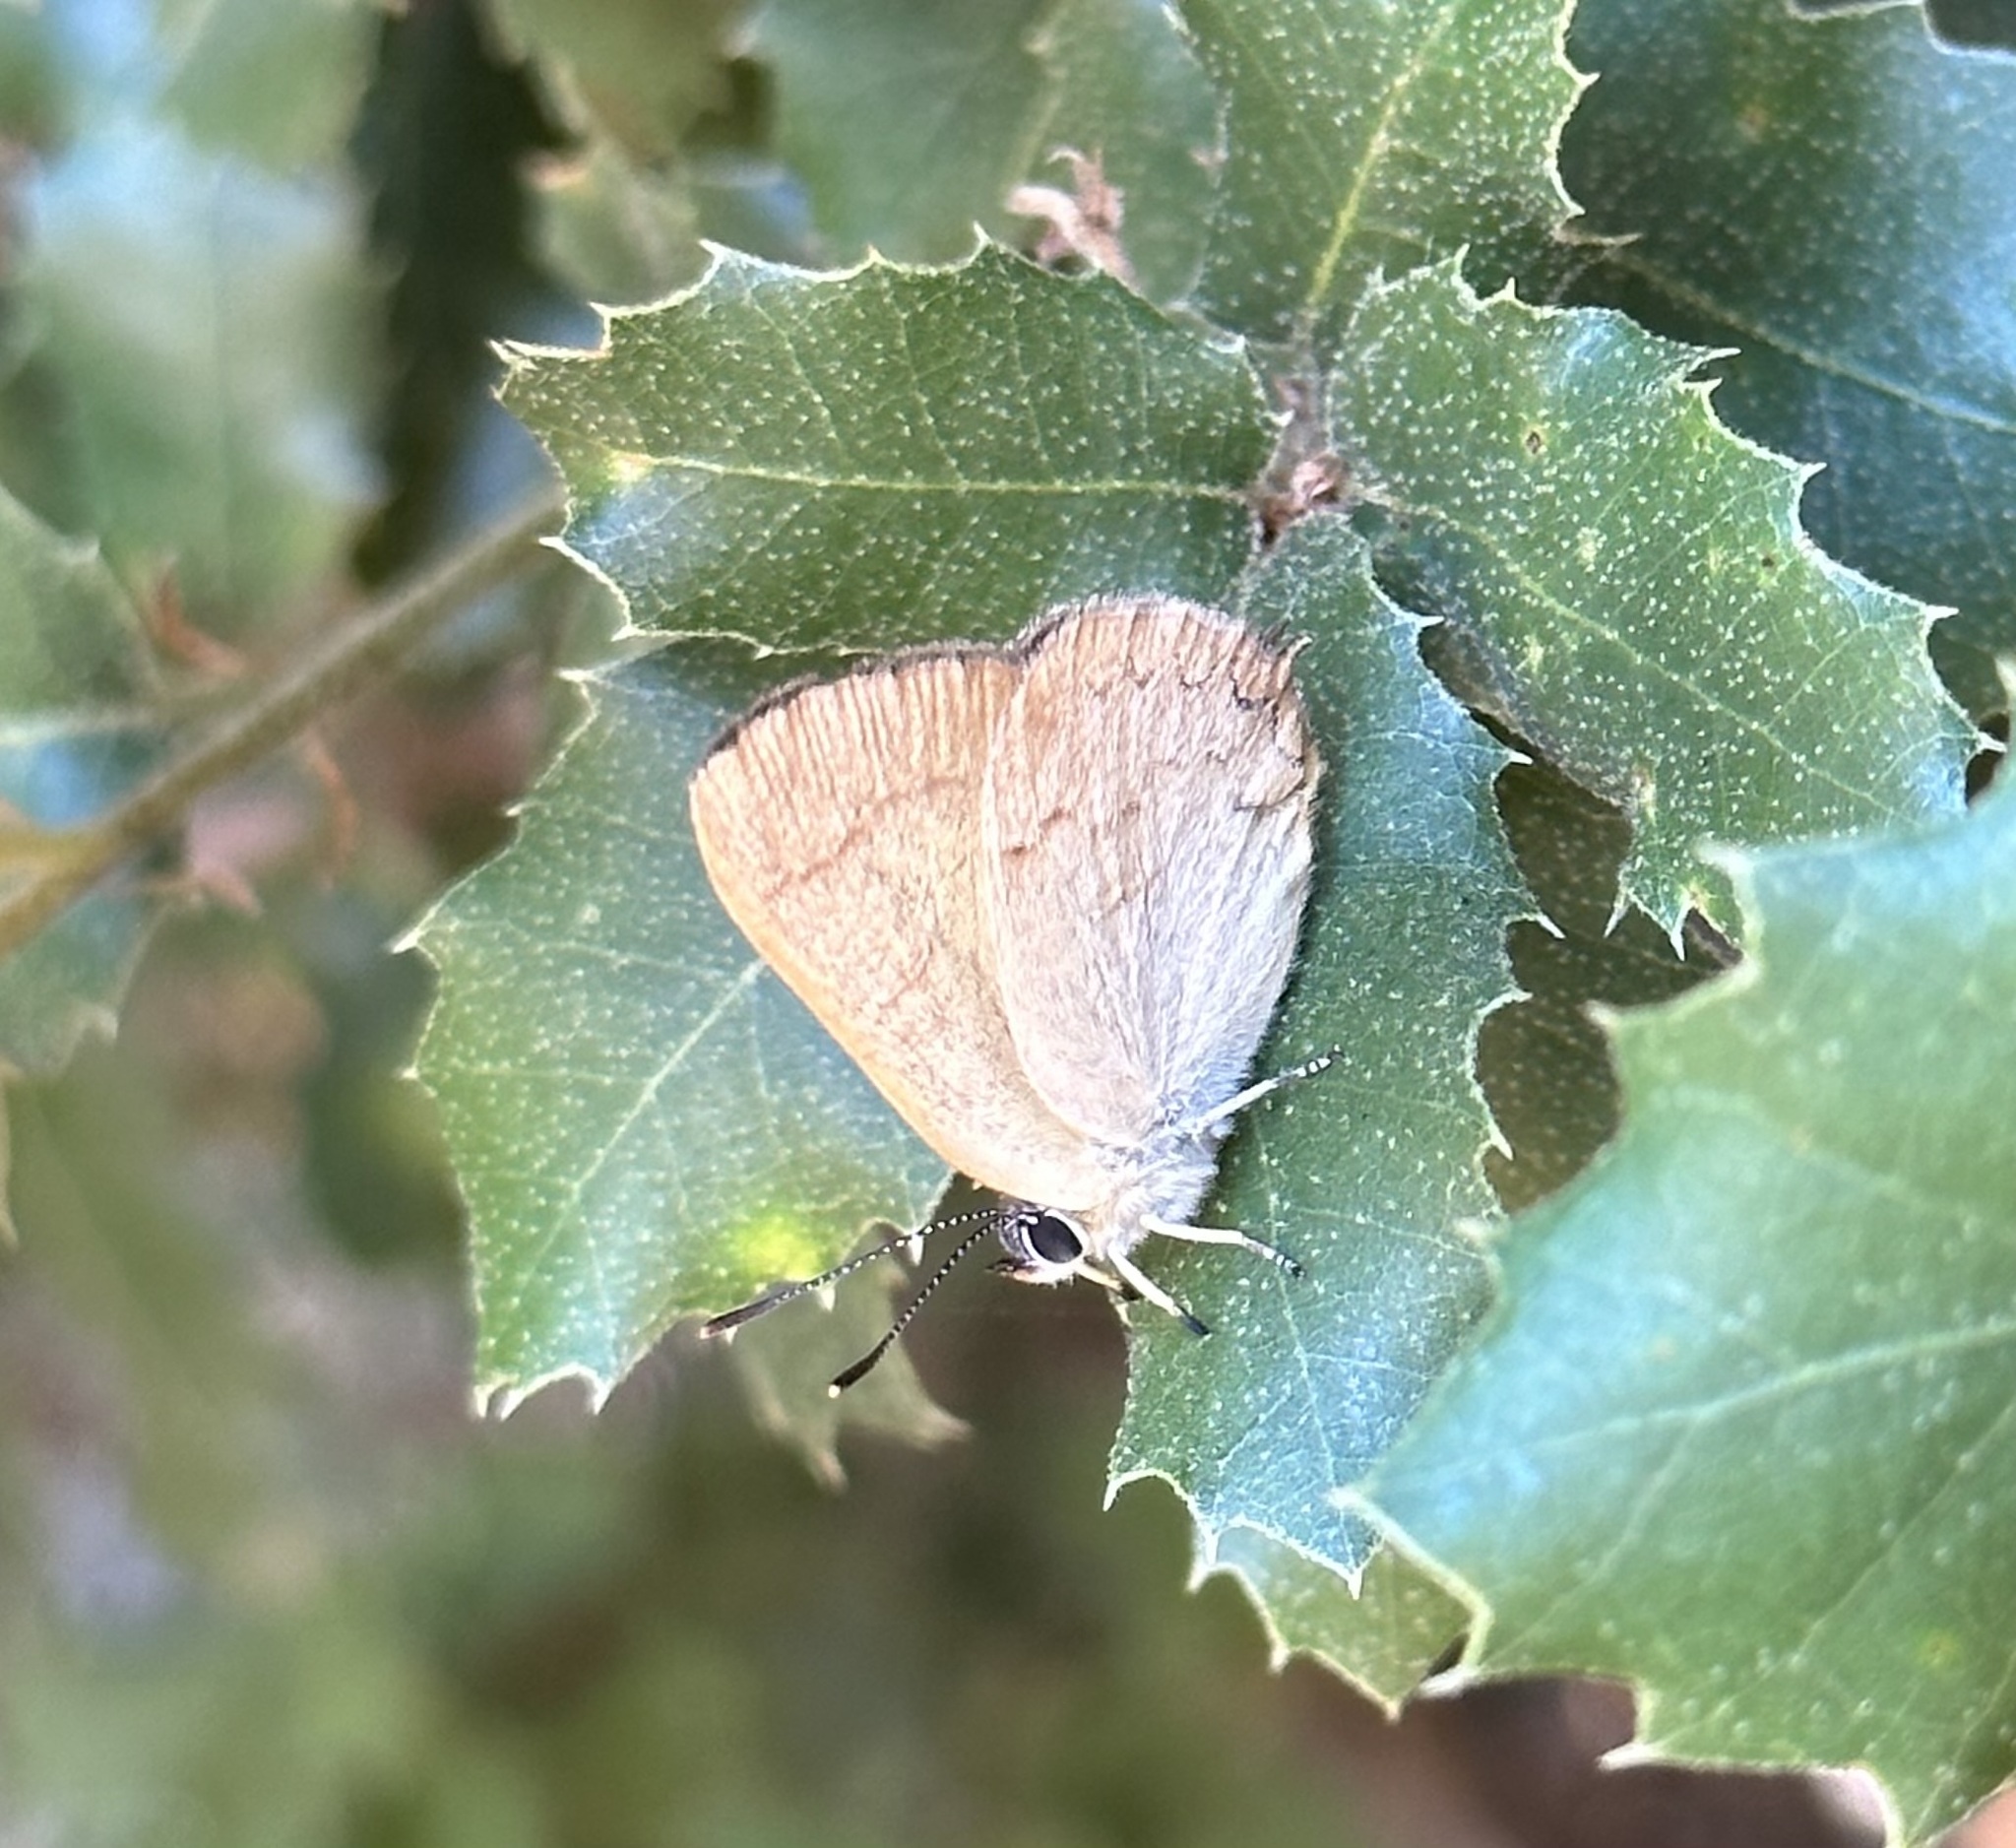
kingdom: Animalia
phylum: Arthropoda
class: Insecta
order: Lepidoptera
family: Lycaenidae
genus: Habrodais
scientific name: Habrodais grunus
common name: Golden hairstreak
